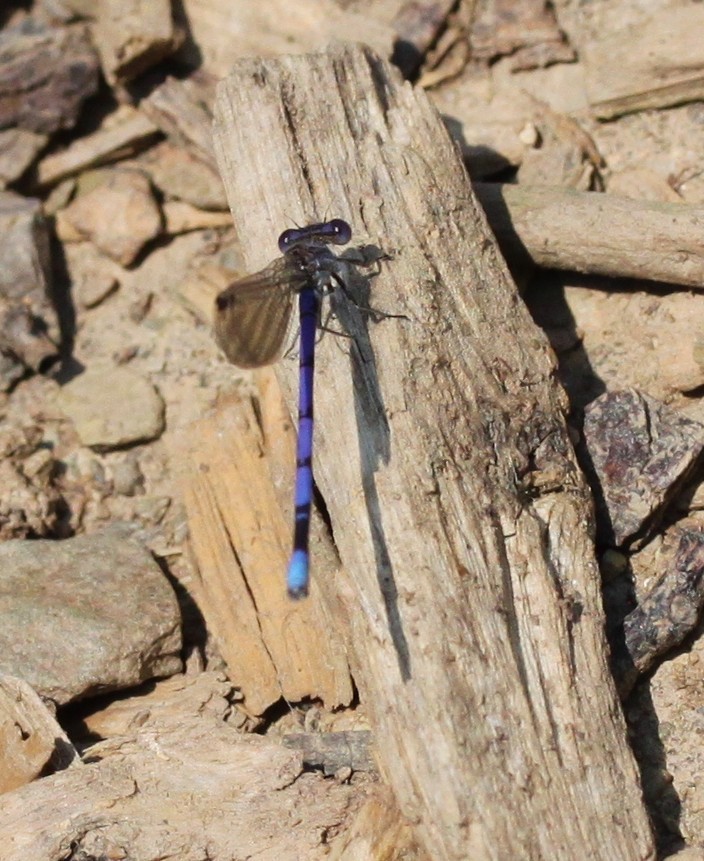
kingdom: Animalia
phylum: Arthropoda
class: Insecta
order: Odonata
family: Coenagrionidae
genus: Argia
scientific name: Argia fumipennis
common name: Variable dancer
